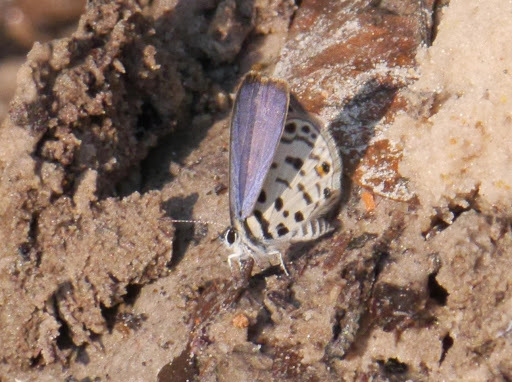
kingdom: Animalia
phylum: Arthropoda
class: Insecta
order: Lepidoptera
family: Lycaenidae
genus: Azanus
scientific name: Azanus mirza
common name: Mirza babul blue
